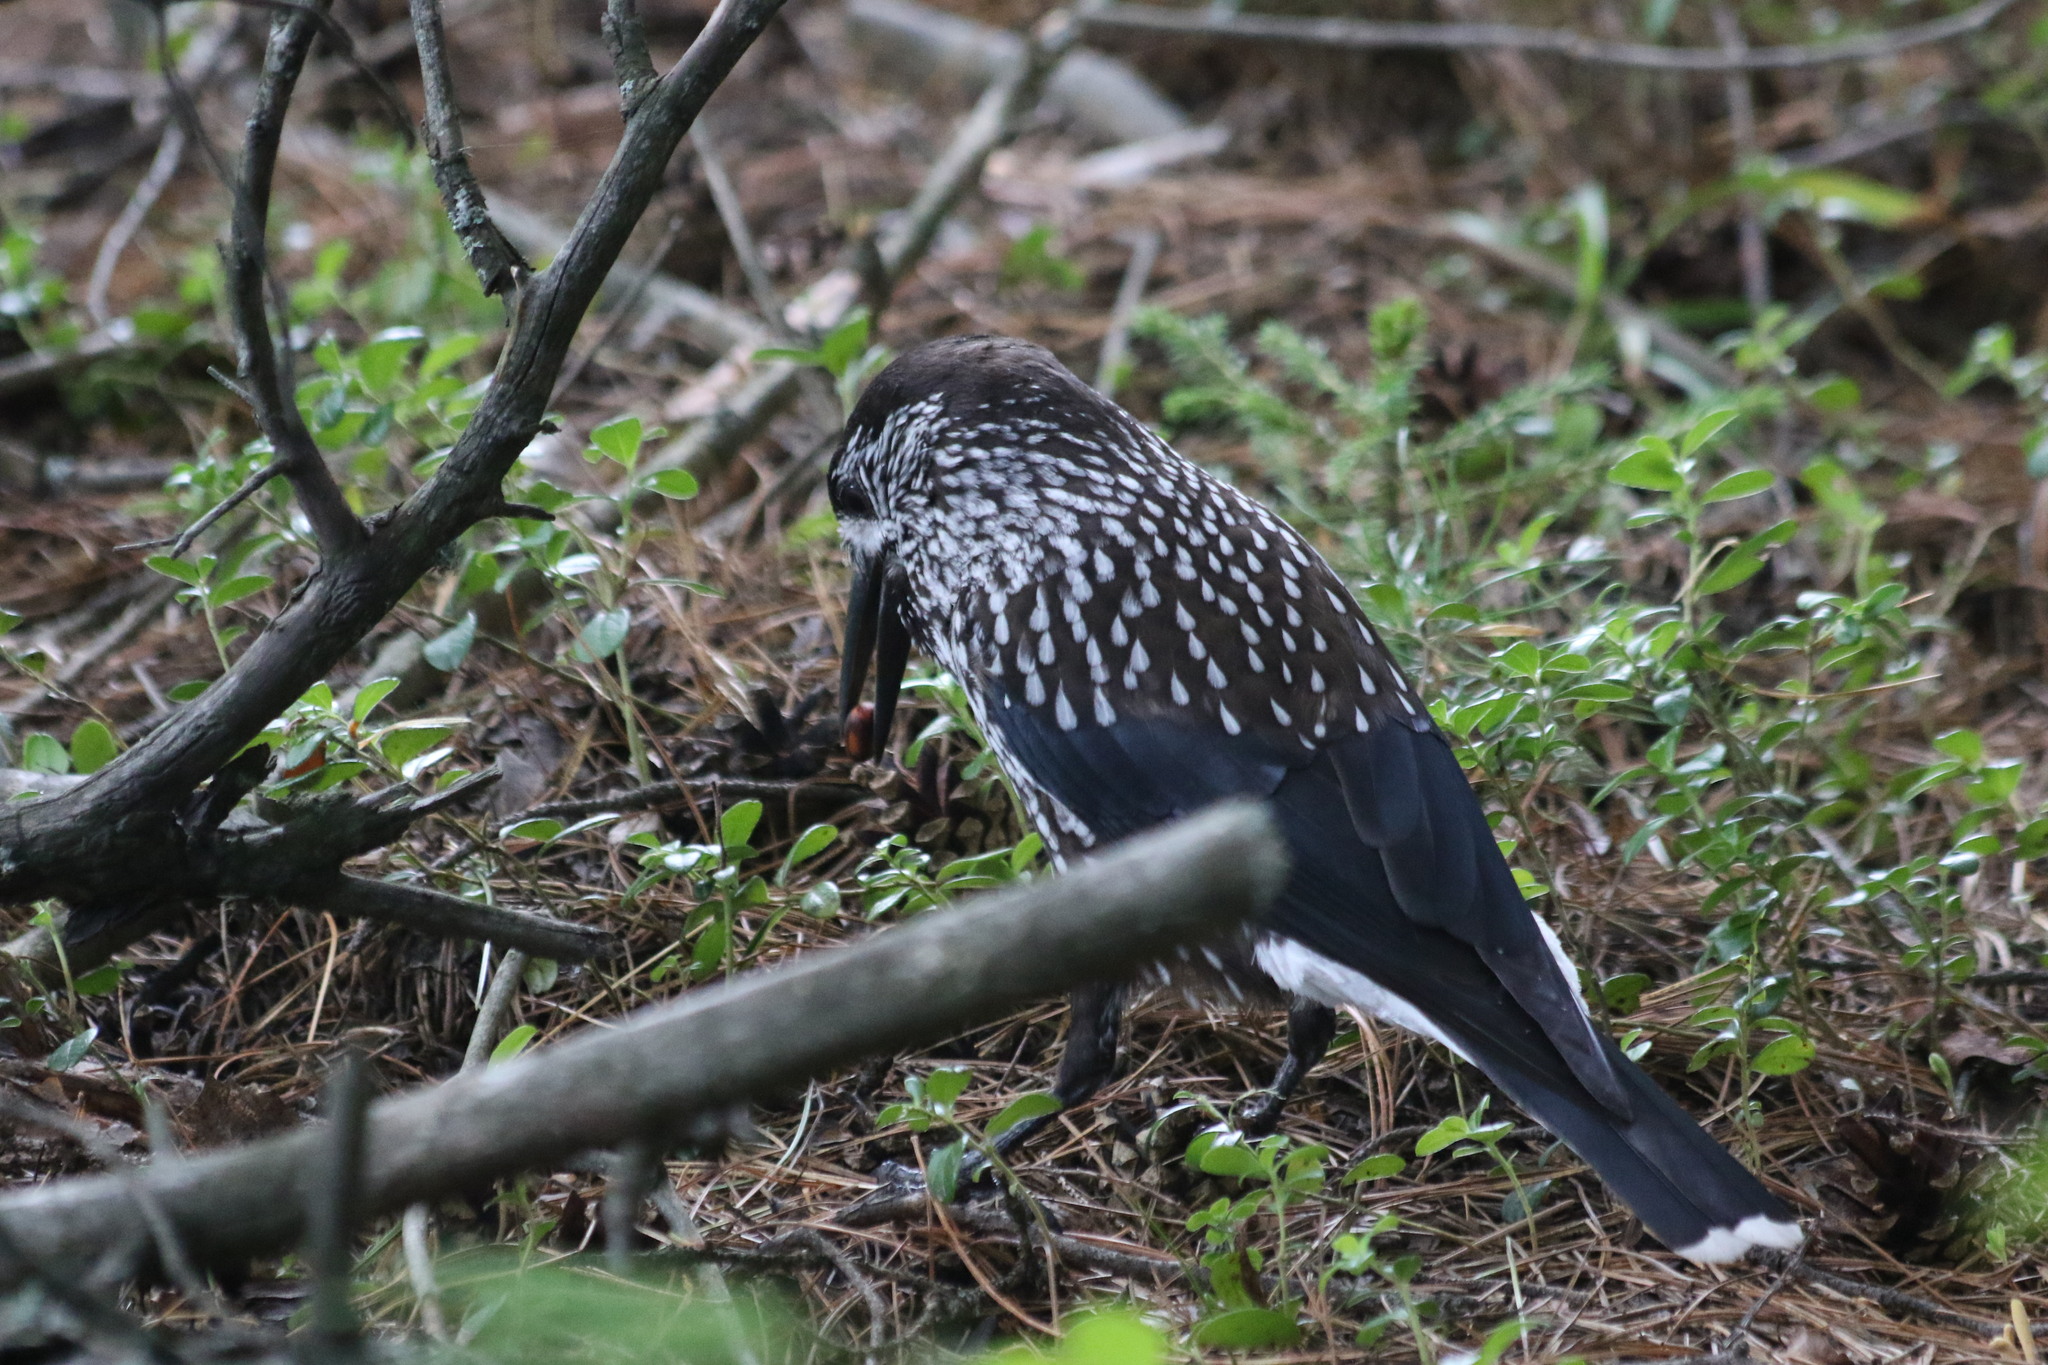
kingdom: Animalia
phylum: Chordata
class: Aves
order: Passeriformes
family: Corvidae
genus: Nucifraga
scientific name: Nucifraga caryocatactes
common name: Spotted nutcracker
